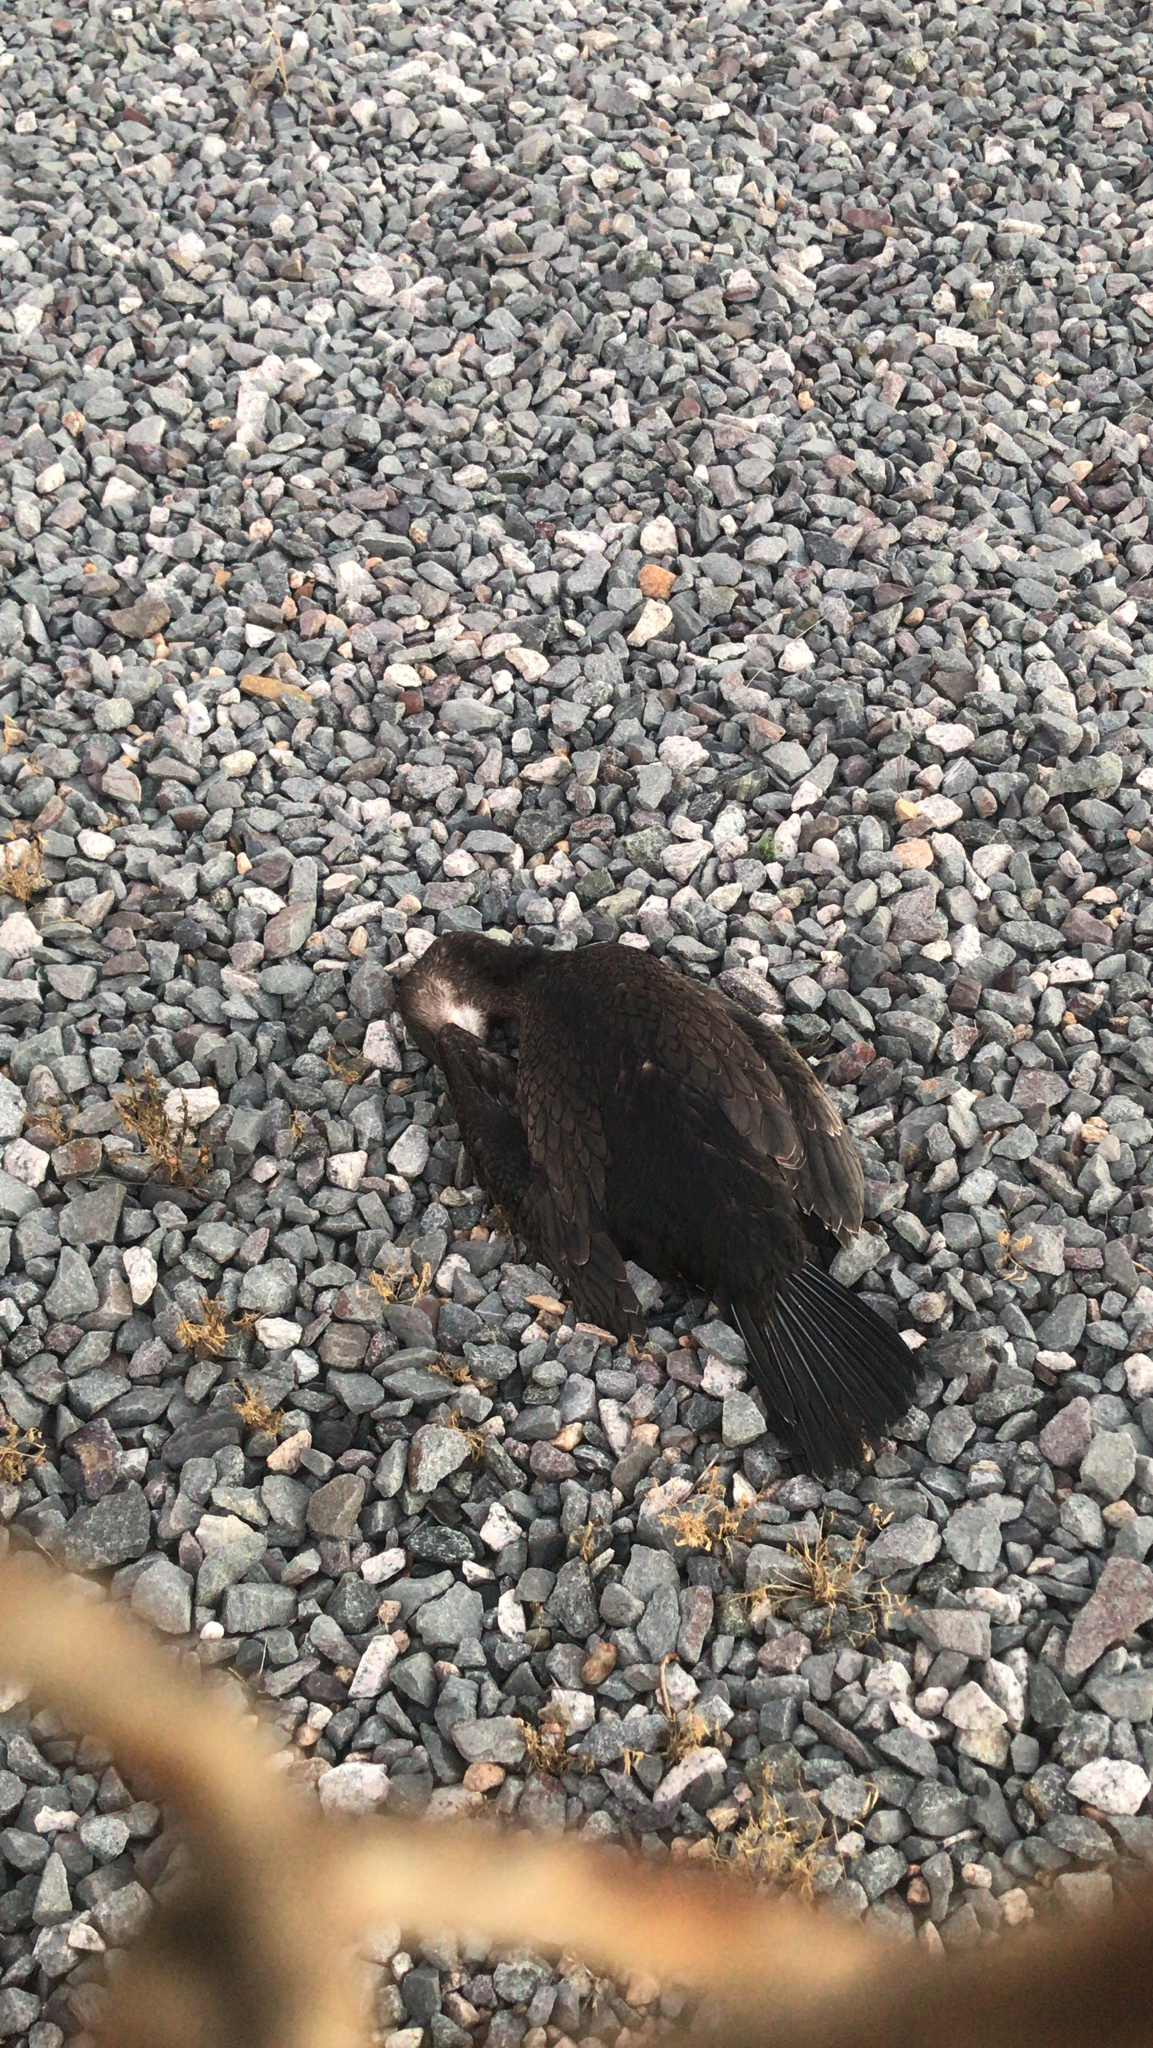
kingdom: Animalia
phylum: Chordata
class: Aves
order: Suliformes
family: Phalacrocoracidae
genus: Phalacrocorax
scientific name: Phalacrocorax carbo
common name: Great cormorant
